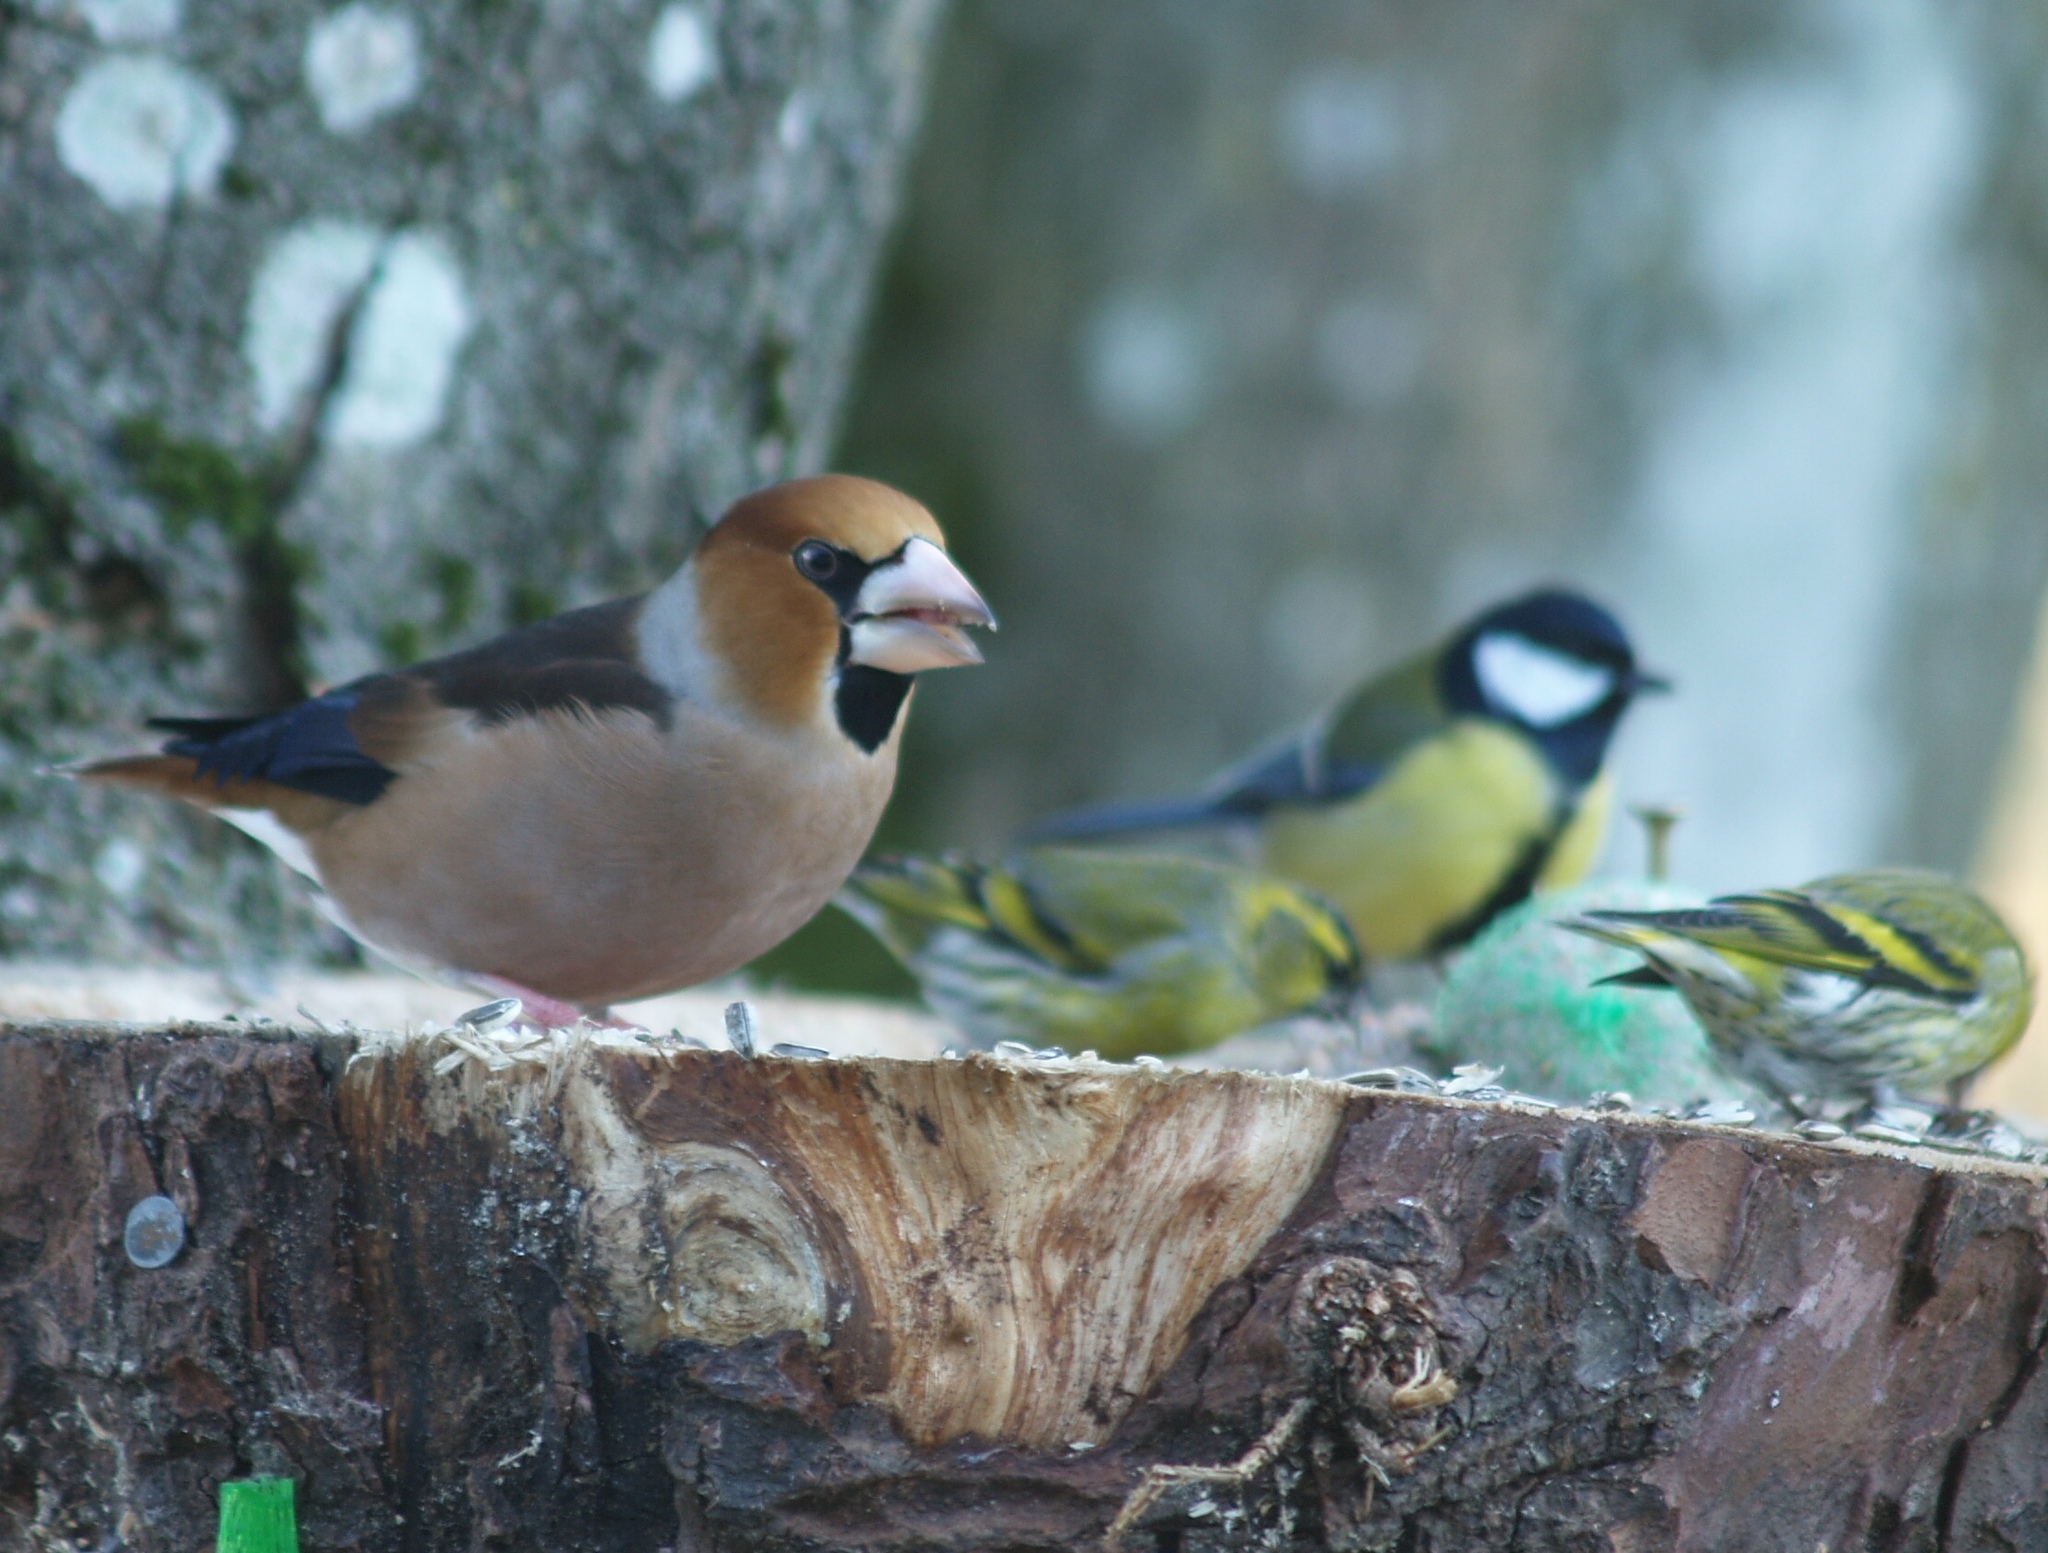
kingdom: Animalia
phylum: Chordata
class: Aves
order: Passeriformes
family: Fringillidae
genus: Coccothraustes
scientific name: Coccothraustes coccothraustes
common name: Hawfinch
